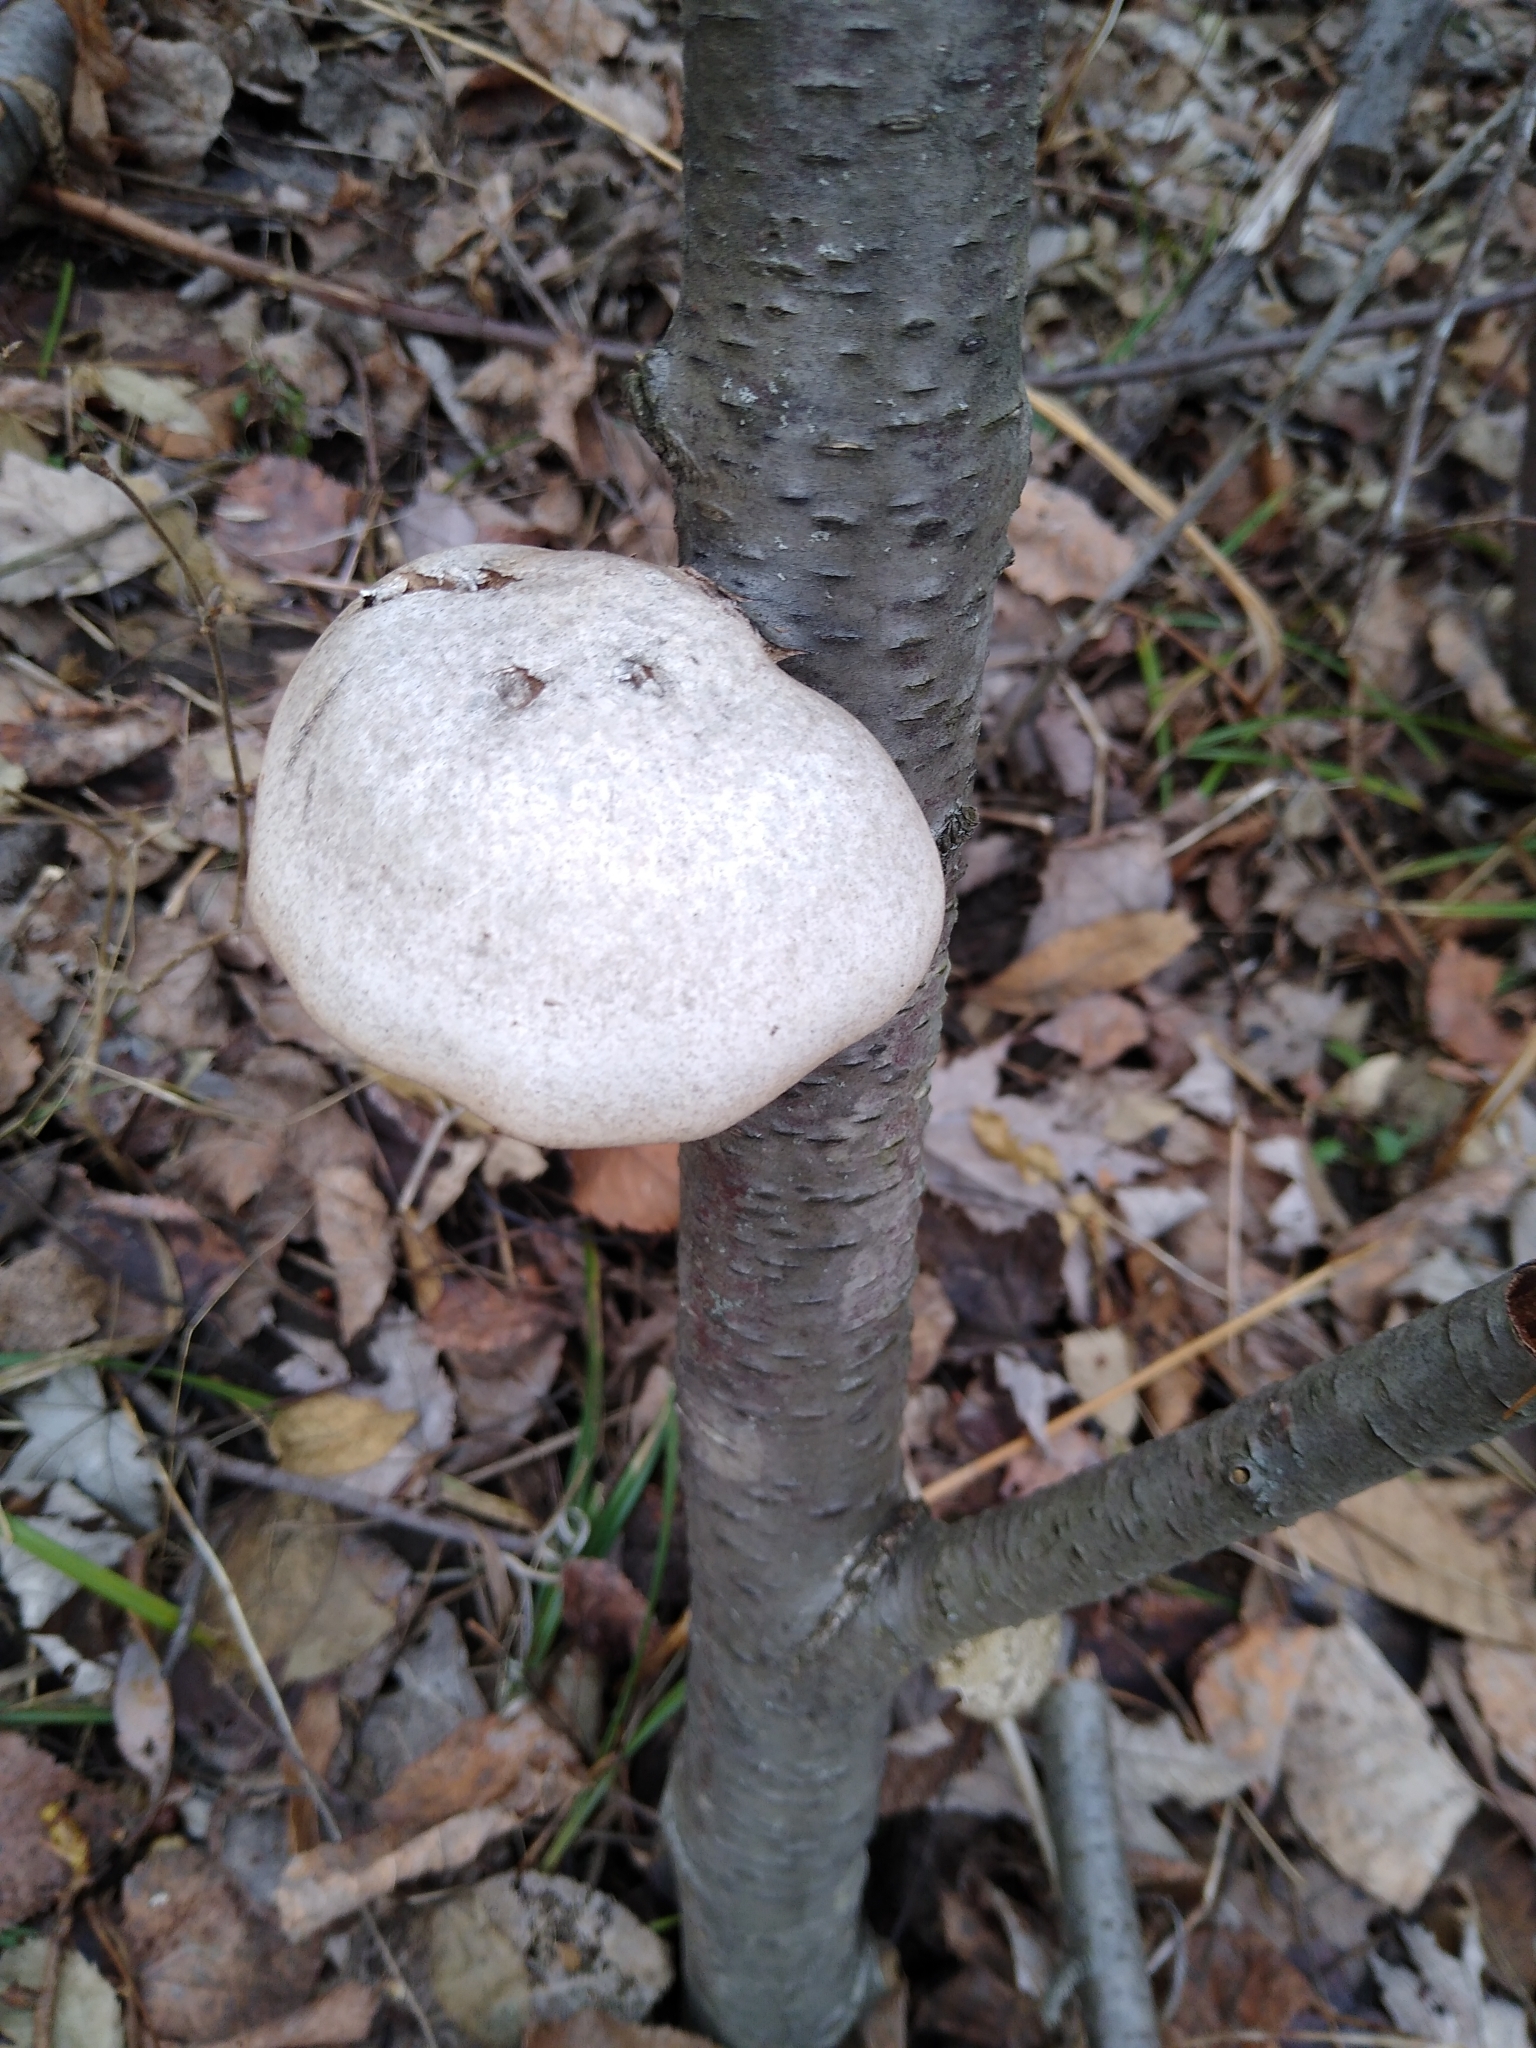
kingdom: Fungi
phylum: Basidiomycota
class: Agaricomycetes
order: Polyporales
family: Fomitopsidaceae
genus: Fomitopsis
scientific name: Fomitopsis betulina
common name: Birch polypore
